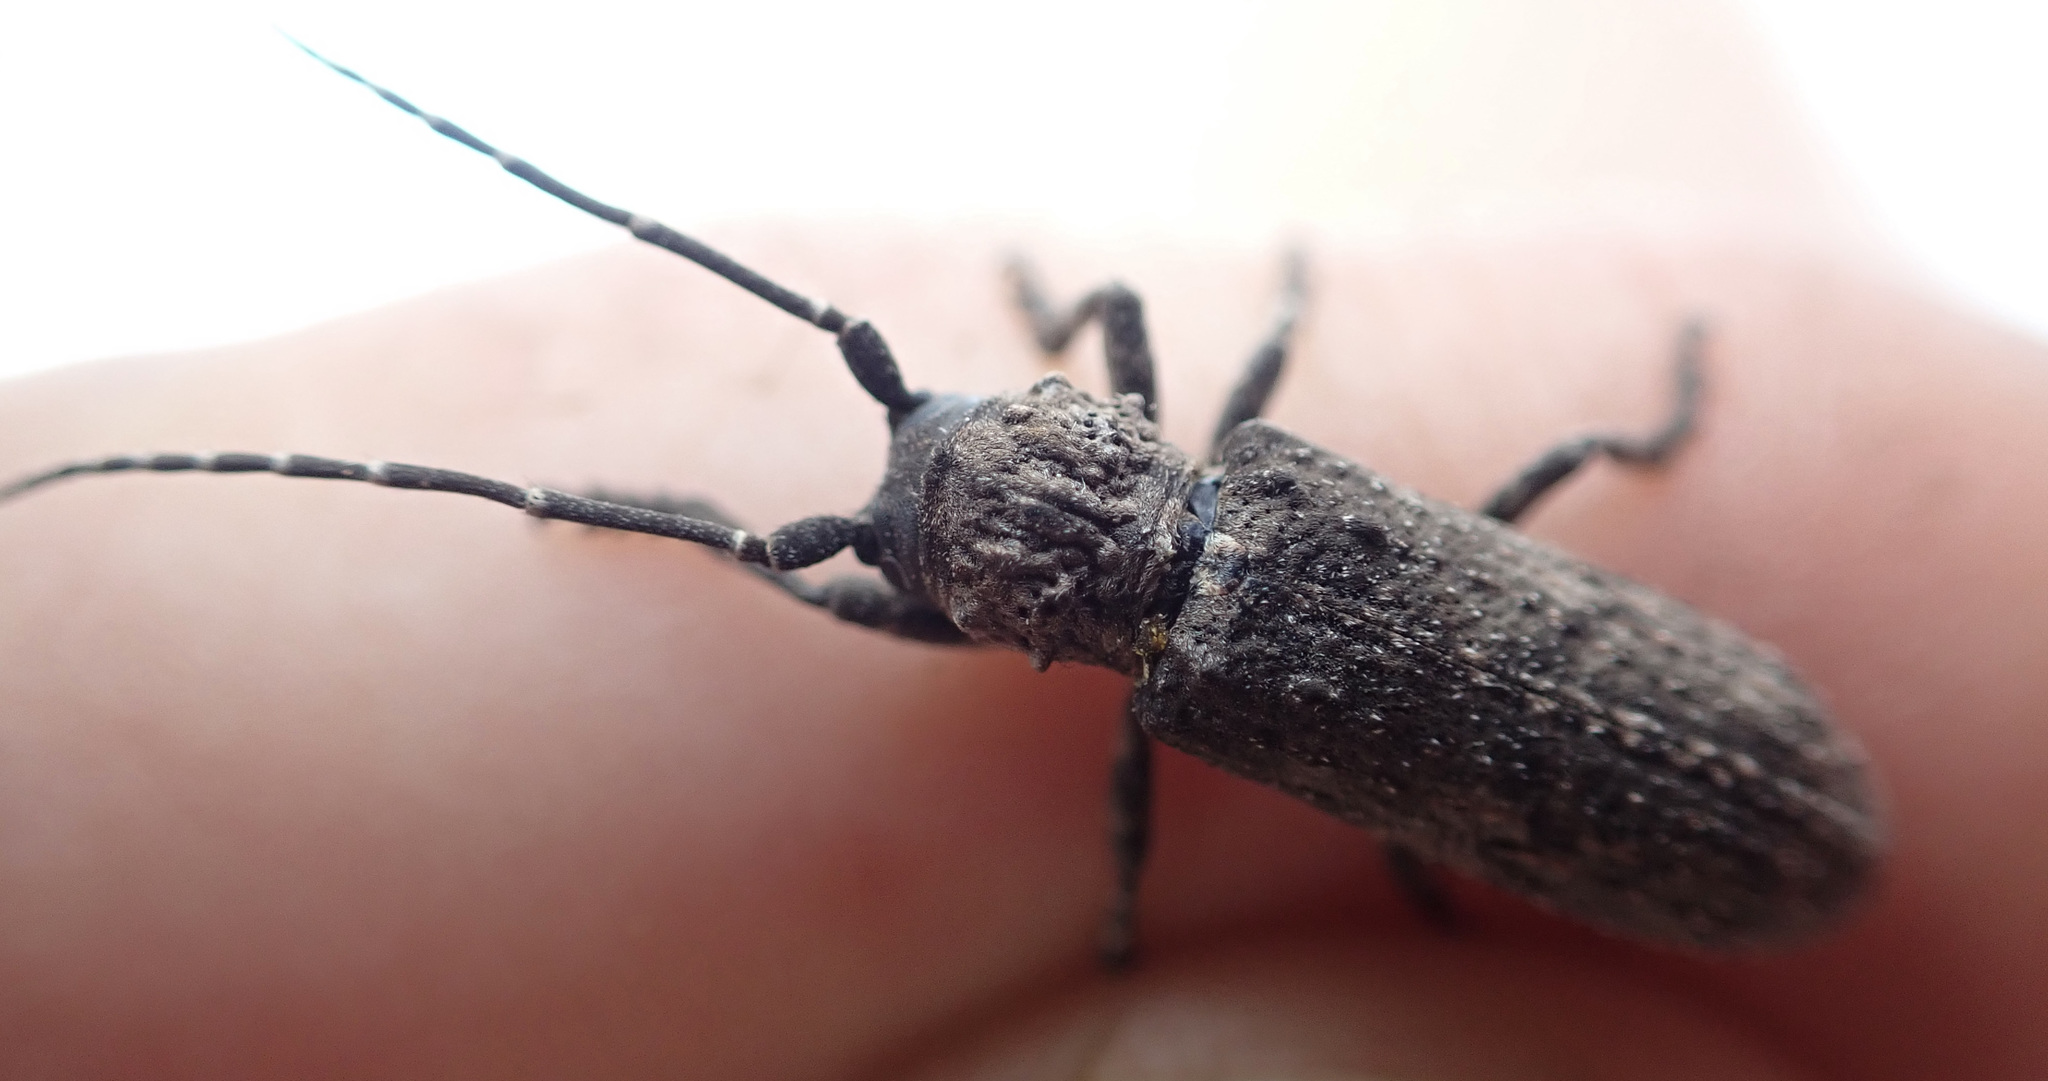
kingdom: Animalia
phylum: Arthropoda
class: Insecta
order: Coleoptera
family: Cerambycidae
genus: Hecyra
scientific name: Hecyra tenebrioides
